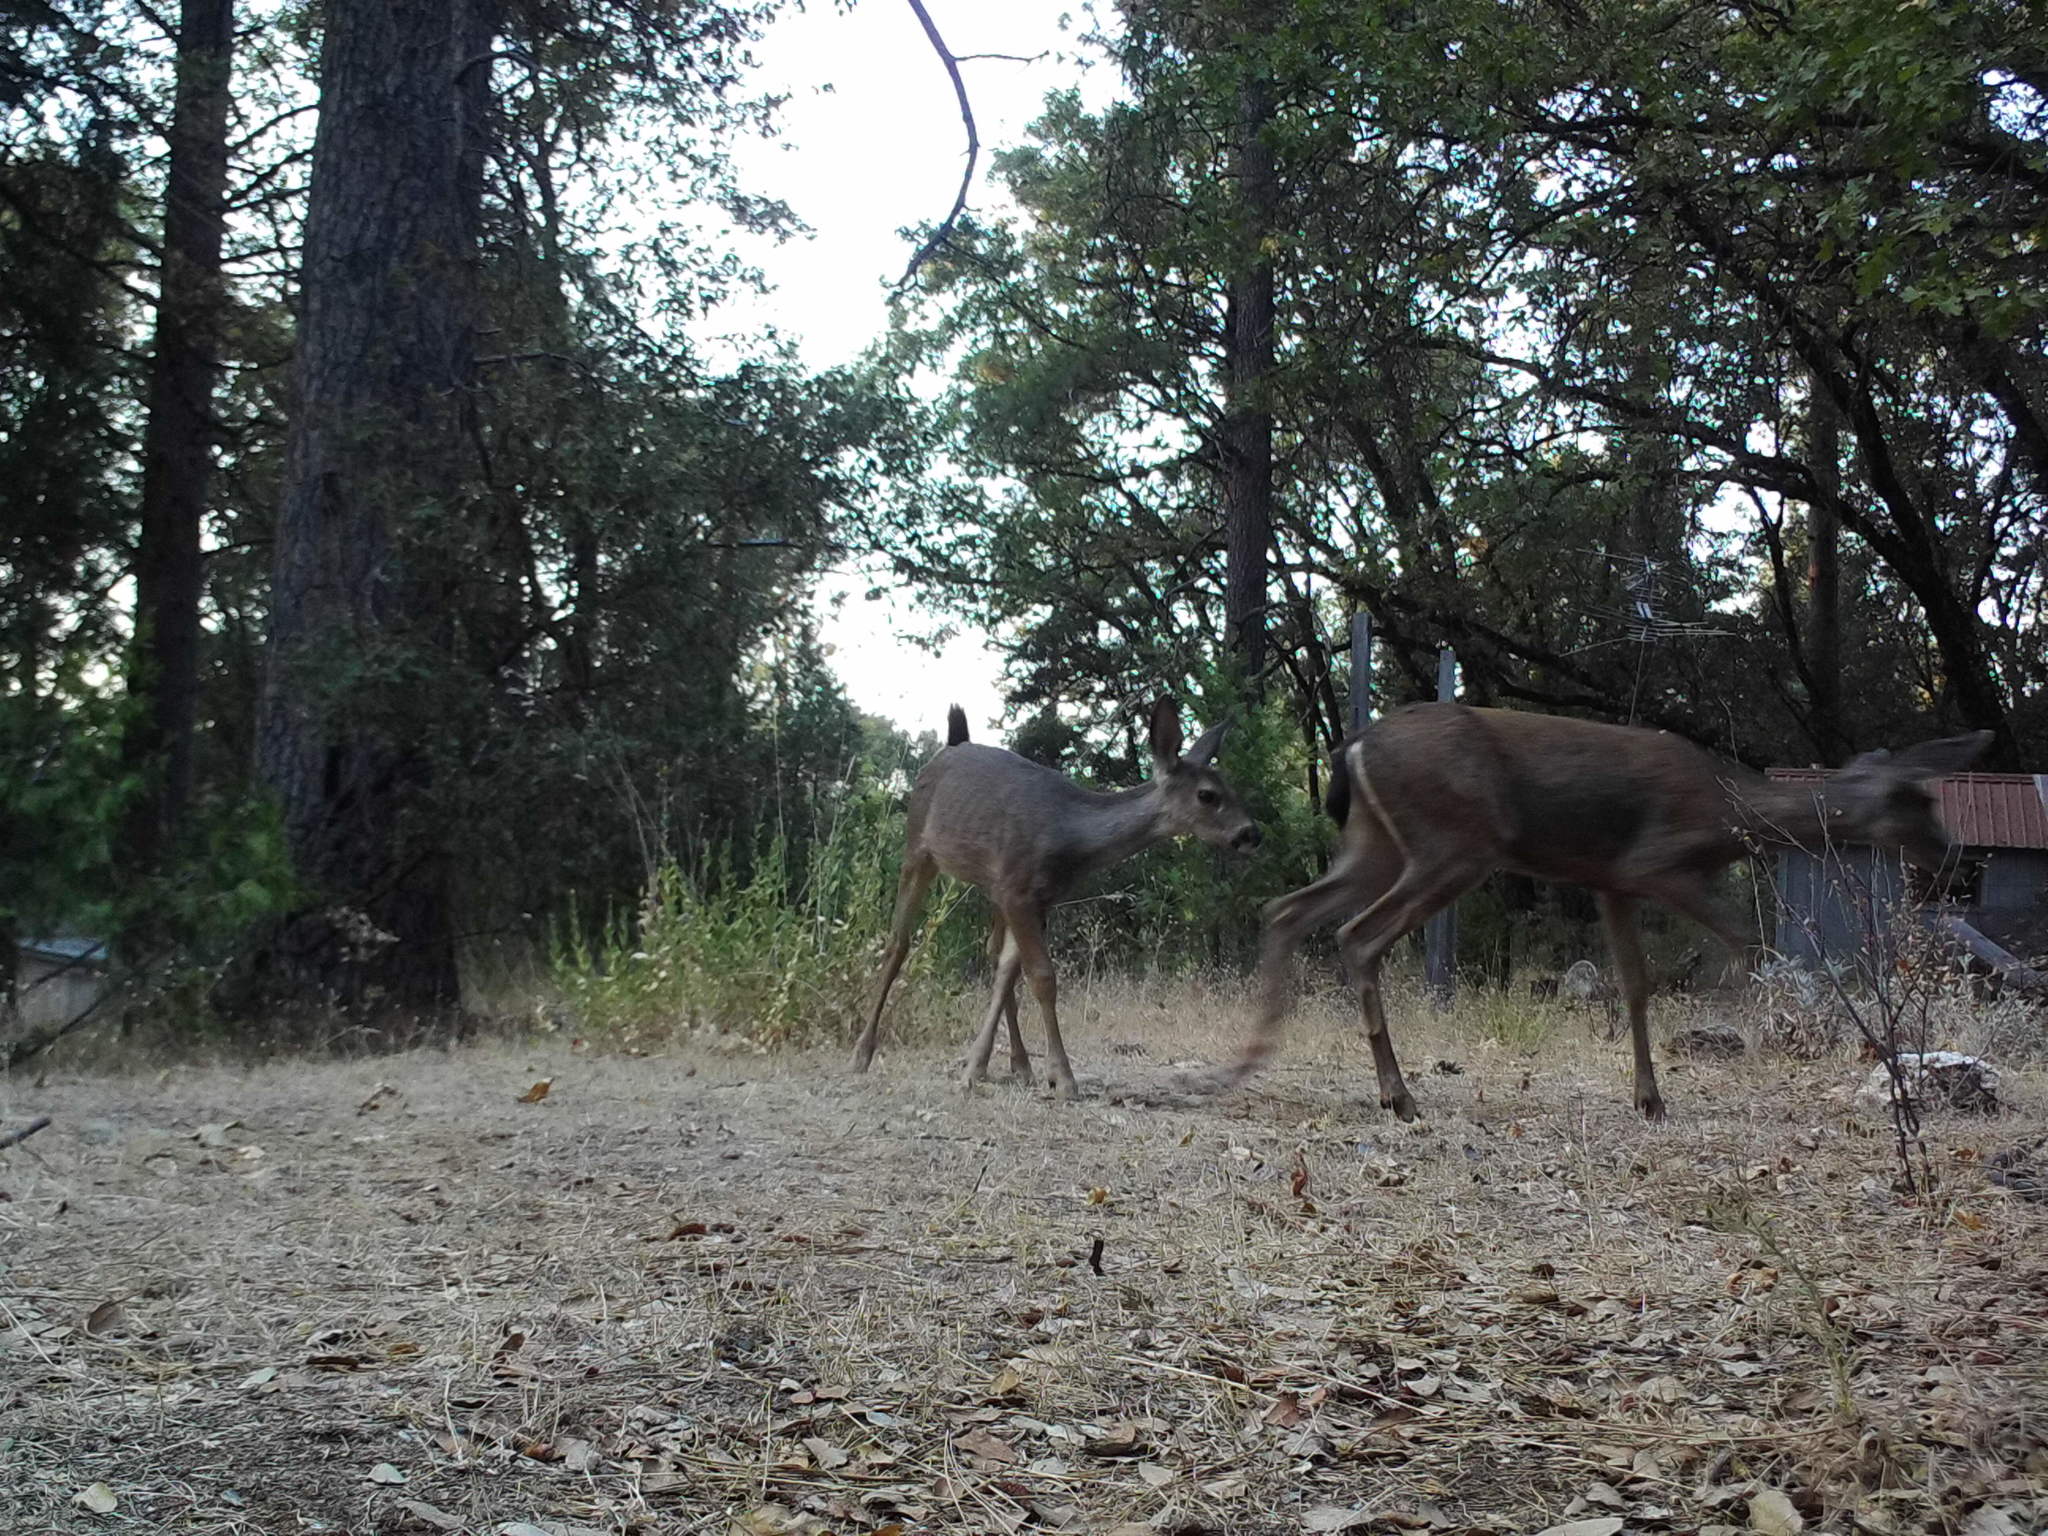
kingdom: Animalia
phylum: Chordata
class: Mammalia
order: Artiodactyla
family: Cervidae
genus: Odocoileus
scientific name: Odocoileus hemionus
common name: Mule deer
